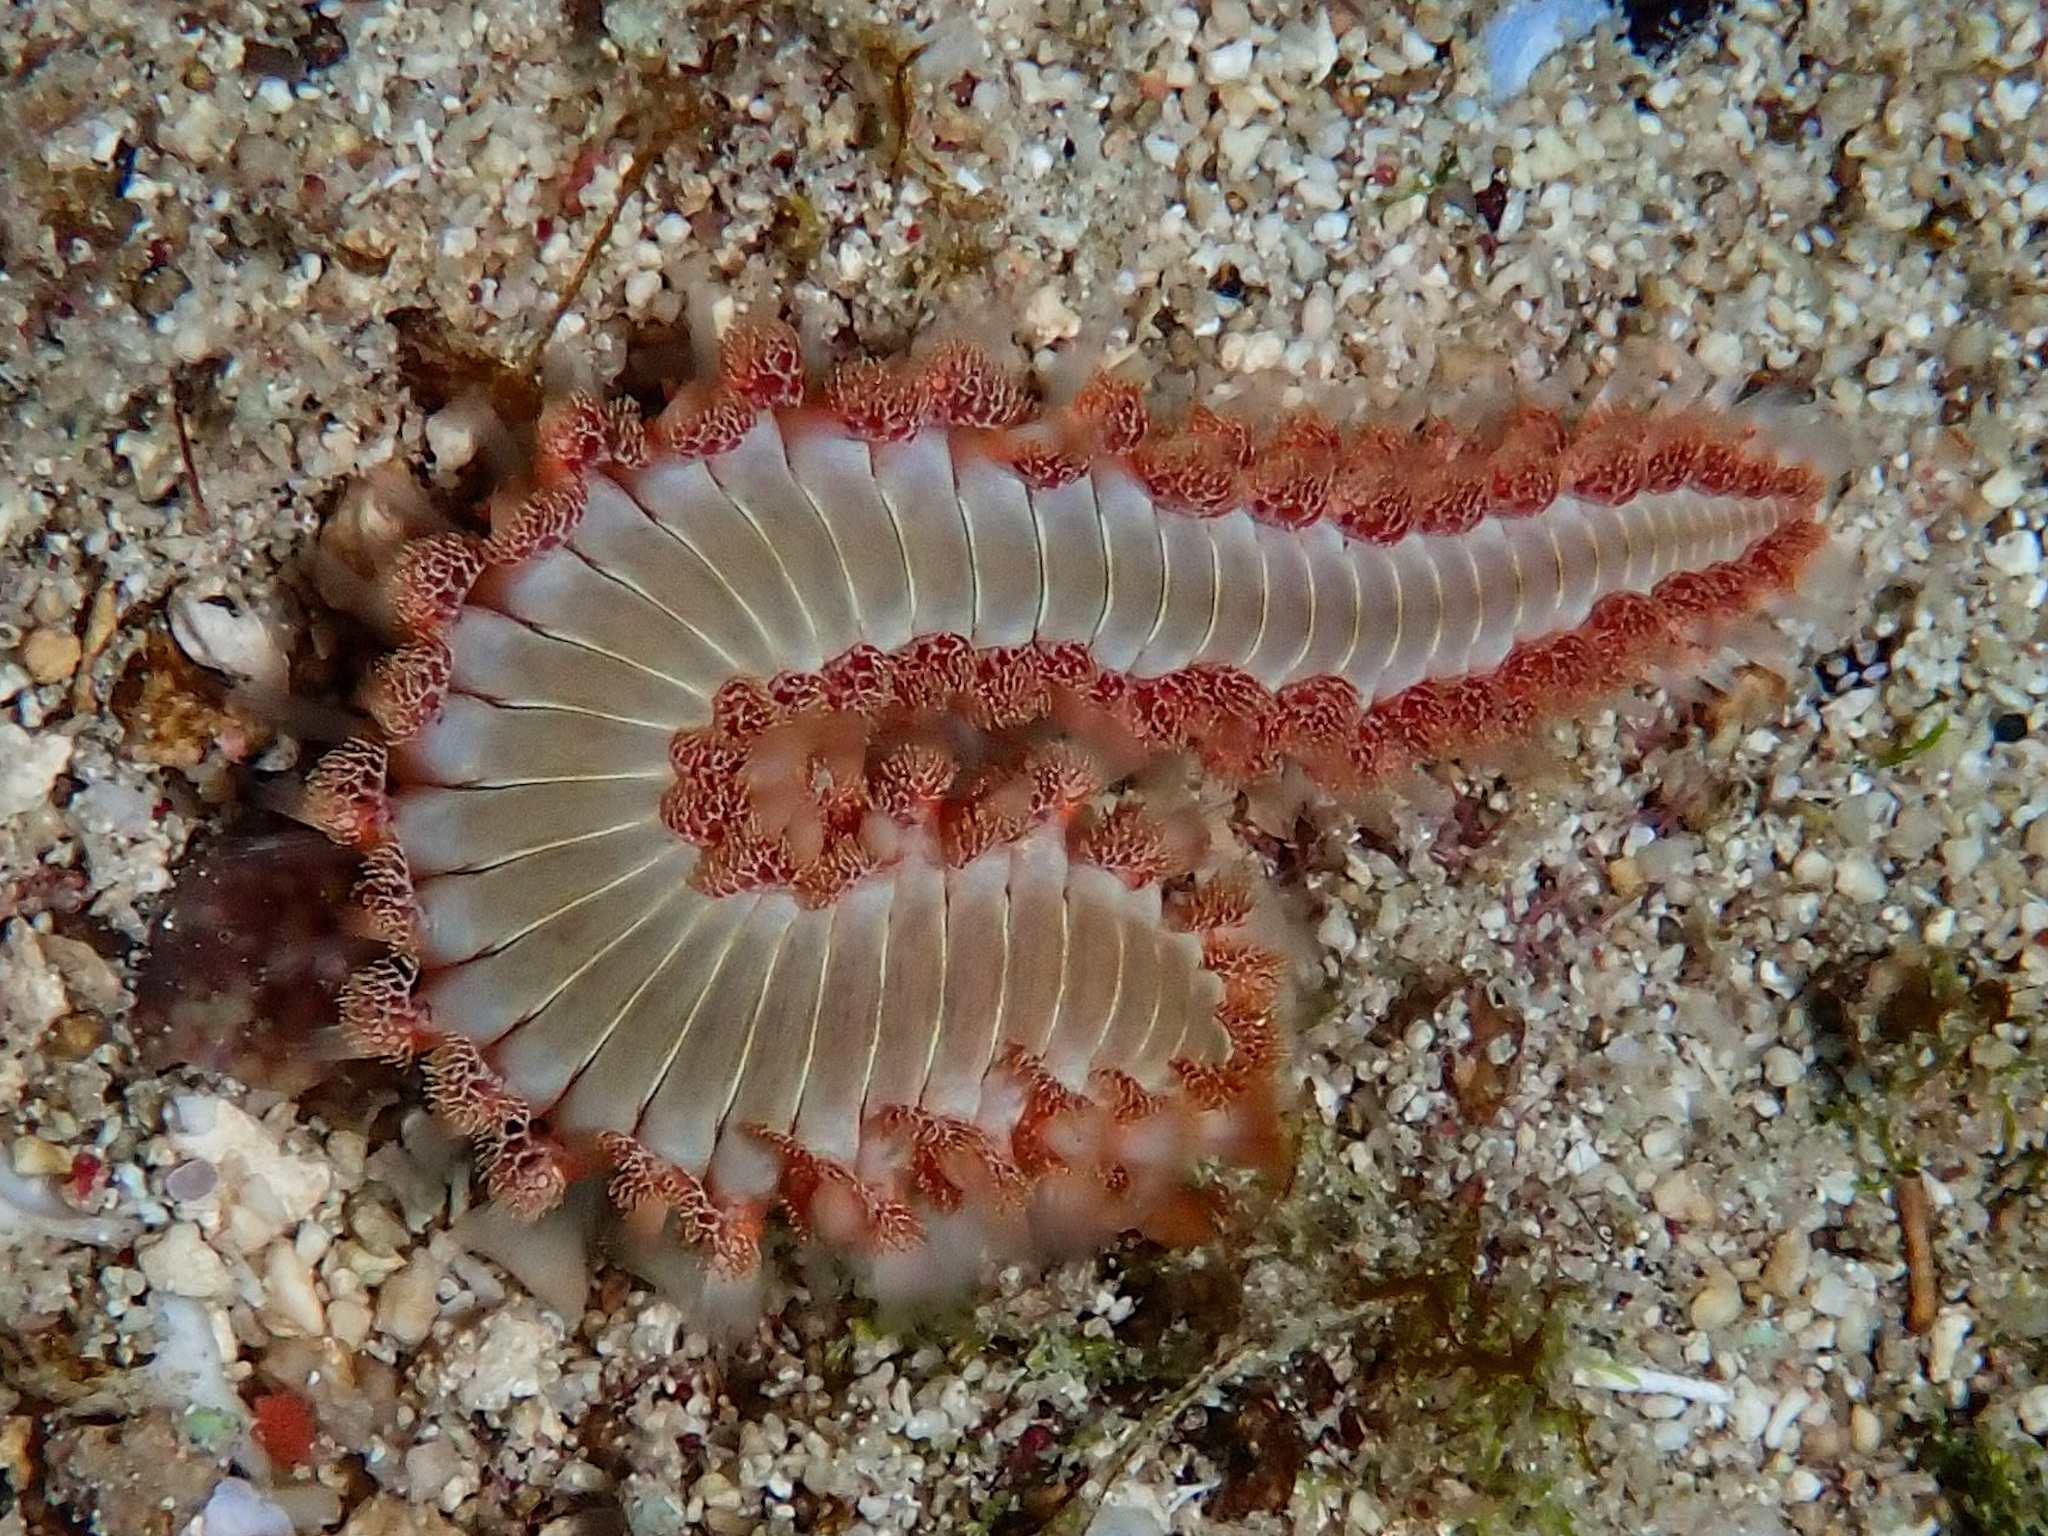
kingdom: Animalia
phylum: Annelida
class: Polychaeta
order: Amphinomida
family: Amphinomidae
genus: Hermodice
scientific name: Hermodice carunculata
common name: Bearded fireworm
